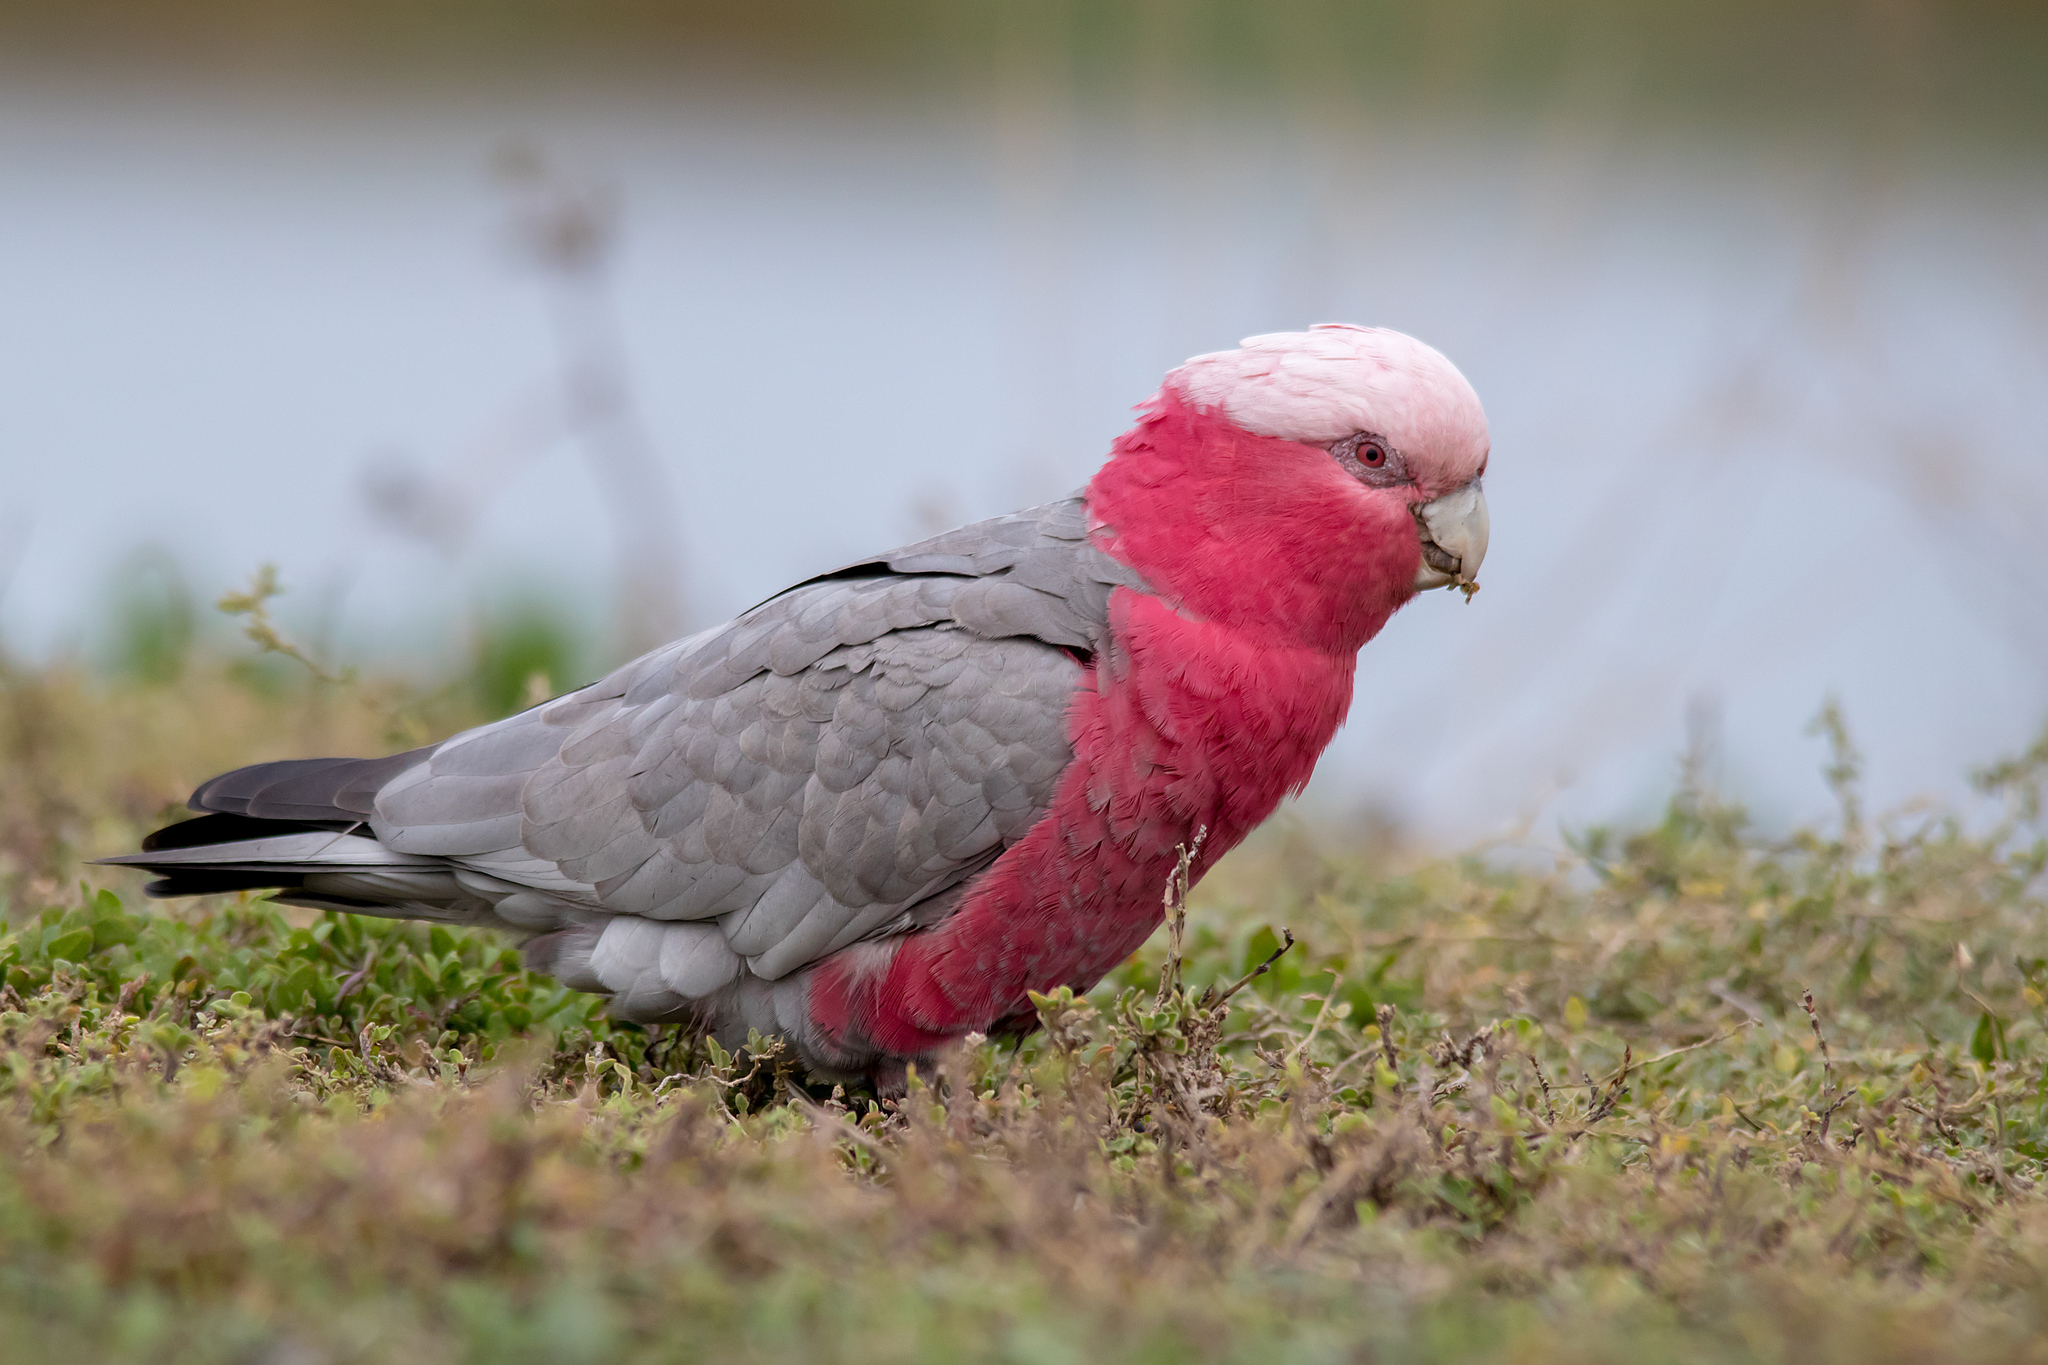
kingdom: Animalia
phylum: Chordata
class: Aves
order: Psittaciformes
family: Psittacidae
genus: Eolophus
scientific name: Eolophus roseicapilla
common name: Galah
